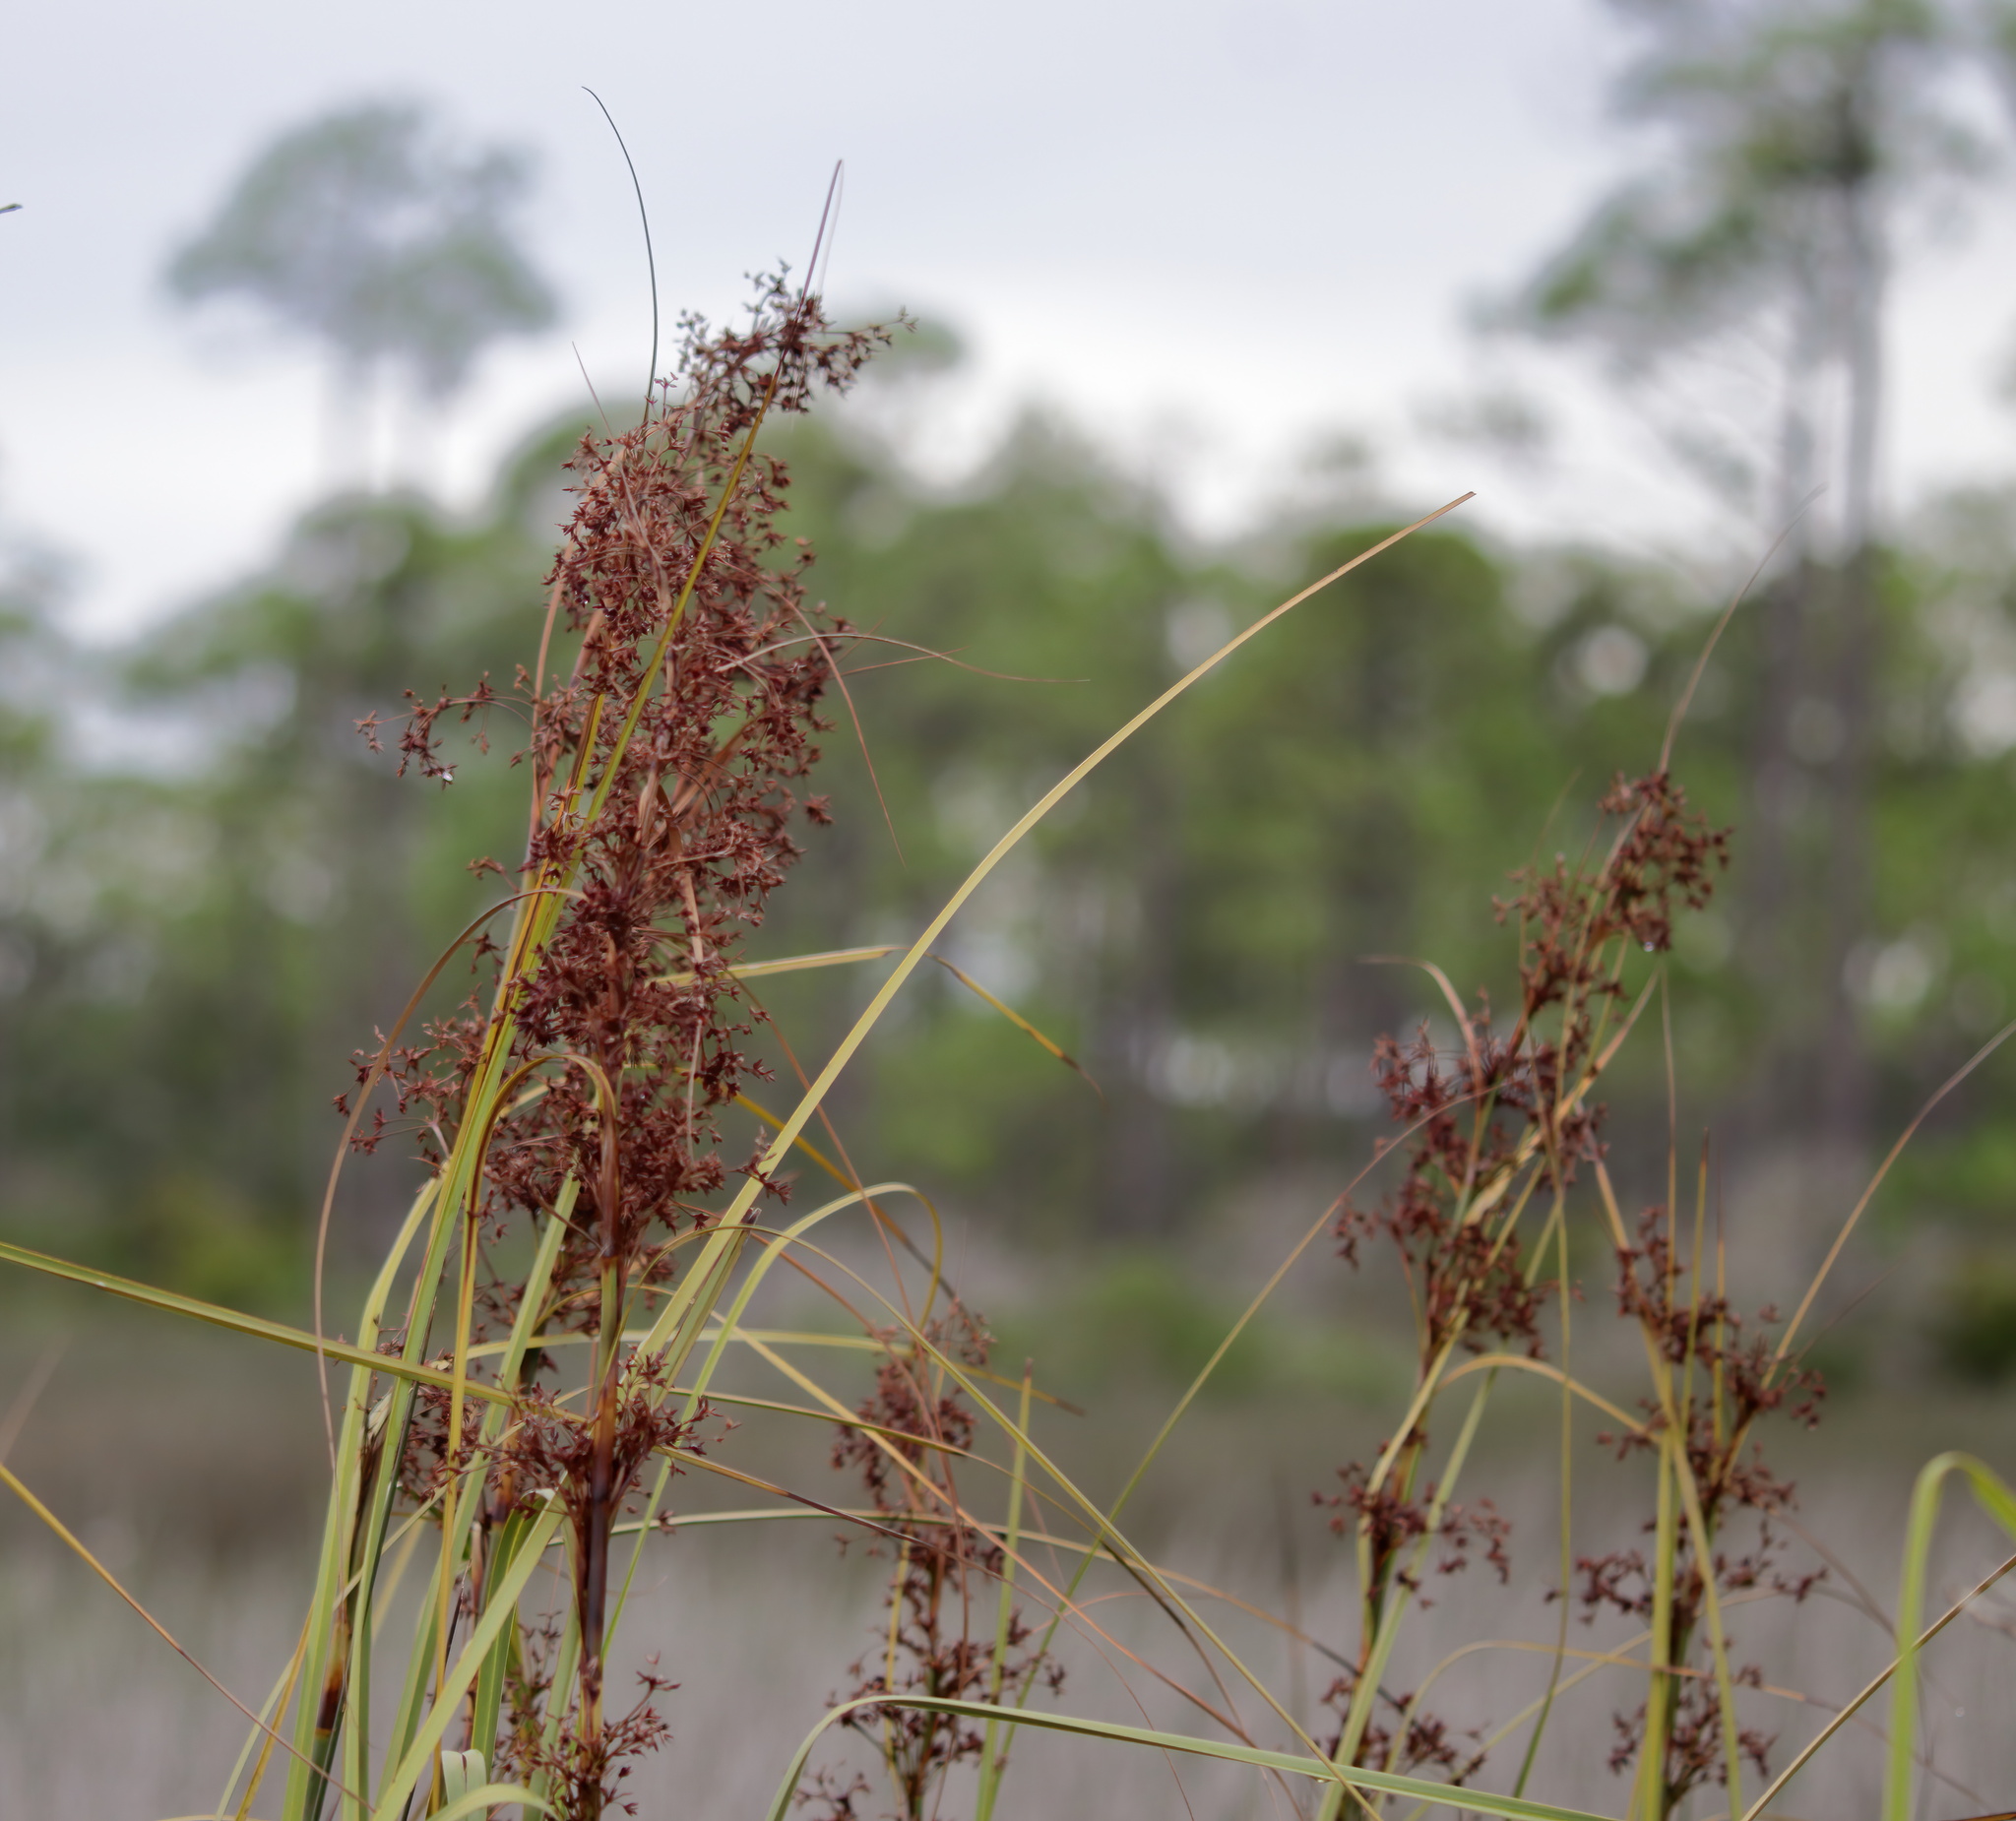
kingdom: Plantae
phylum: Tracheophyta
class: Liliopsida
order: Poales
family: Cyperaceae
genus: Cladium
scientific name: Cladium mariscus
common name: Great fen-sedge
